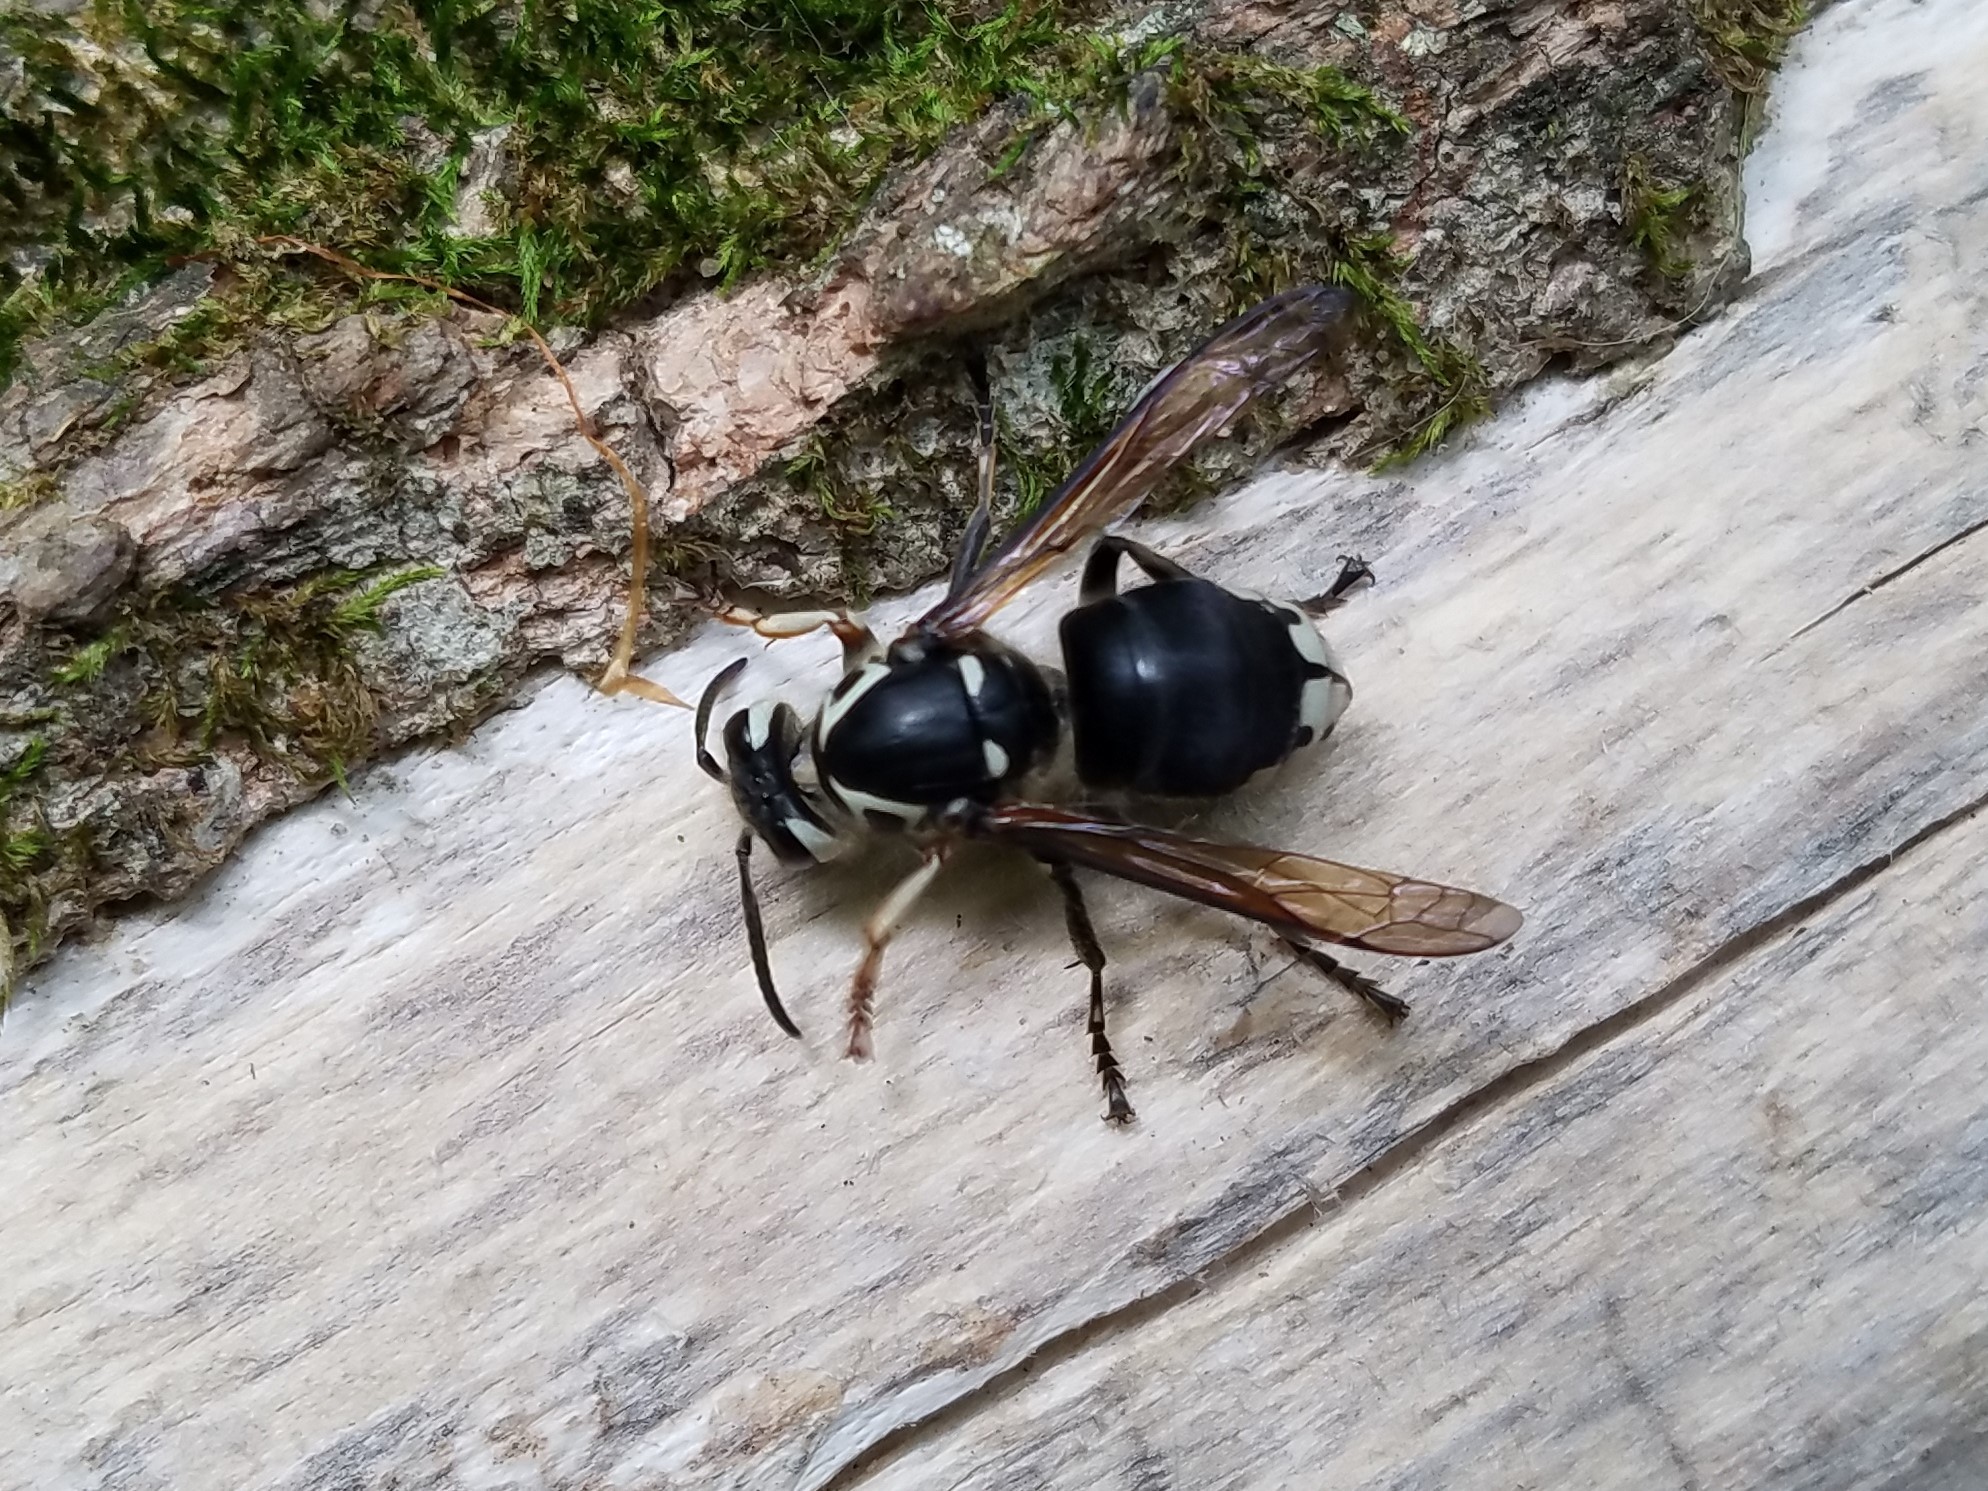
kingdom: Animalia
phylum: Arthropoda
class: Insecta
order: Hymenoptera
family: Vespidae
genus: Dolichovespula
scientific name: Dolichovespula maculata
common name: Bald-faced hornet
